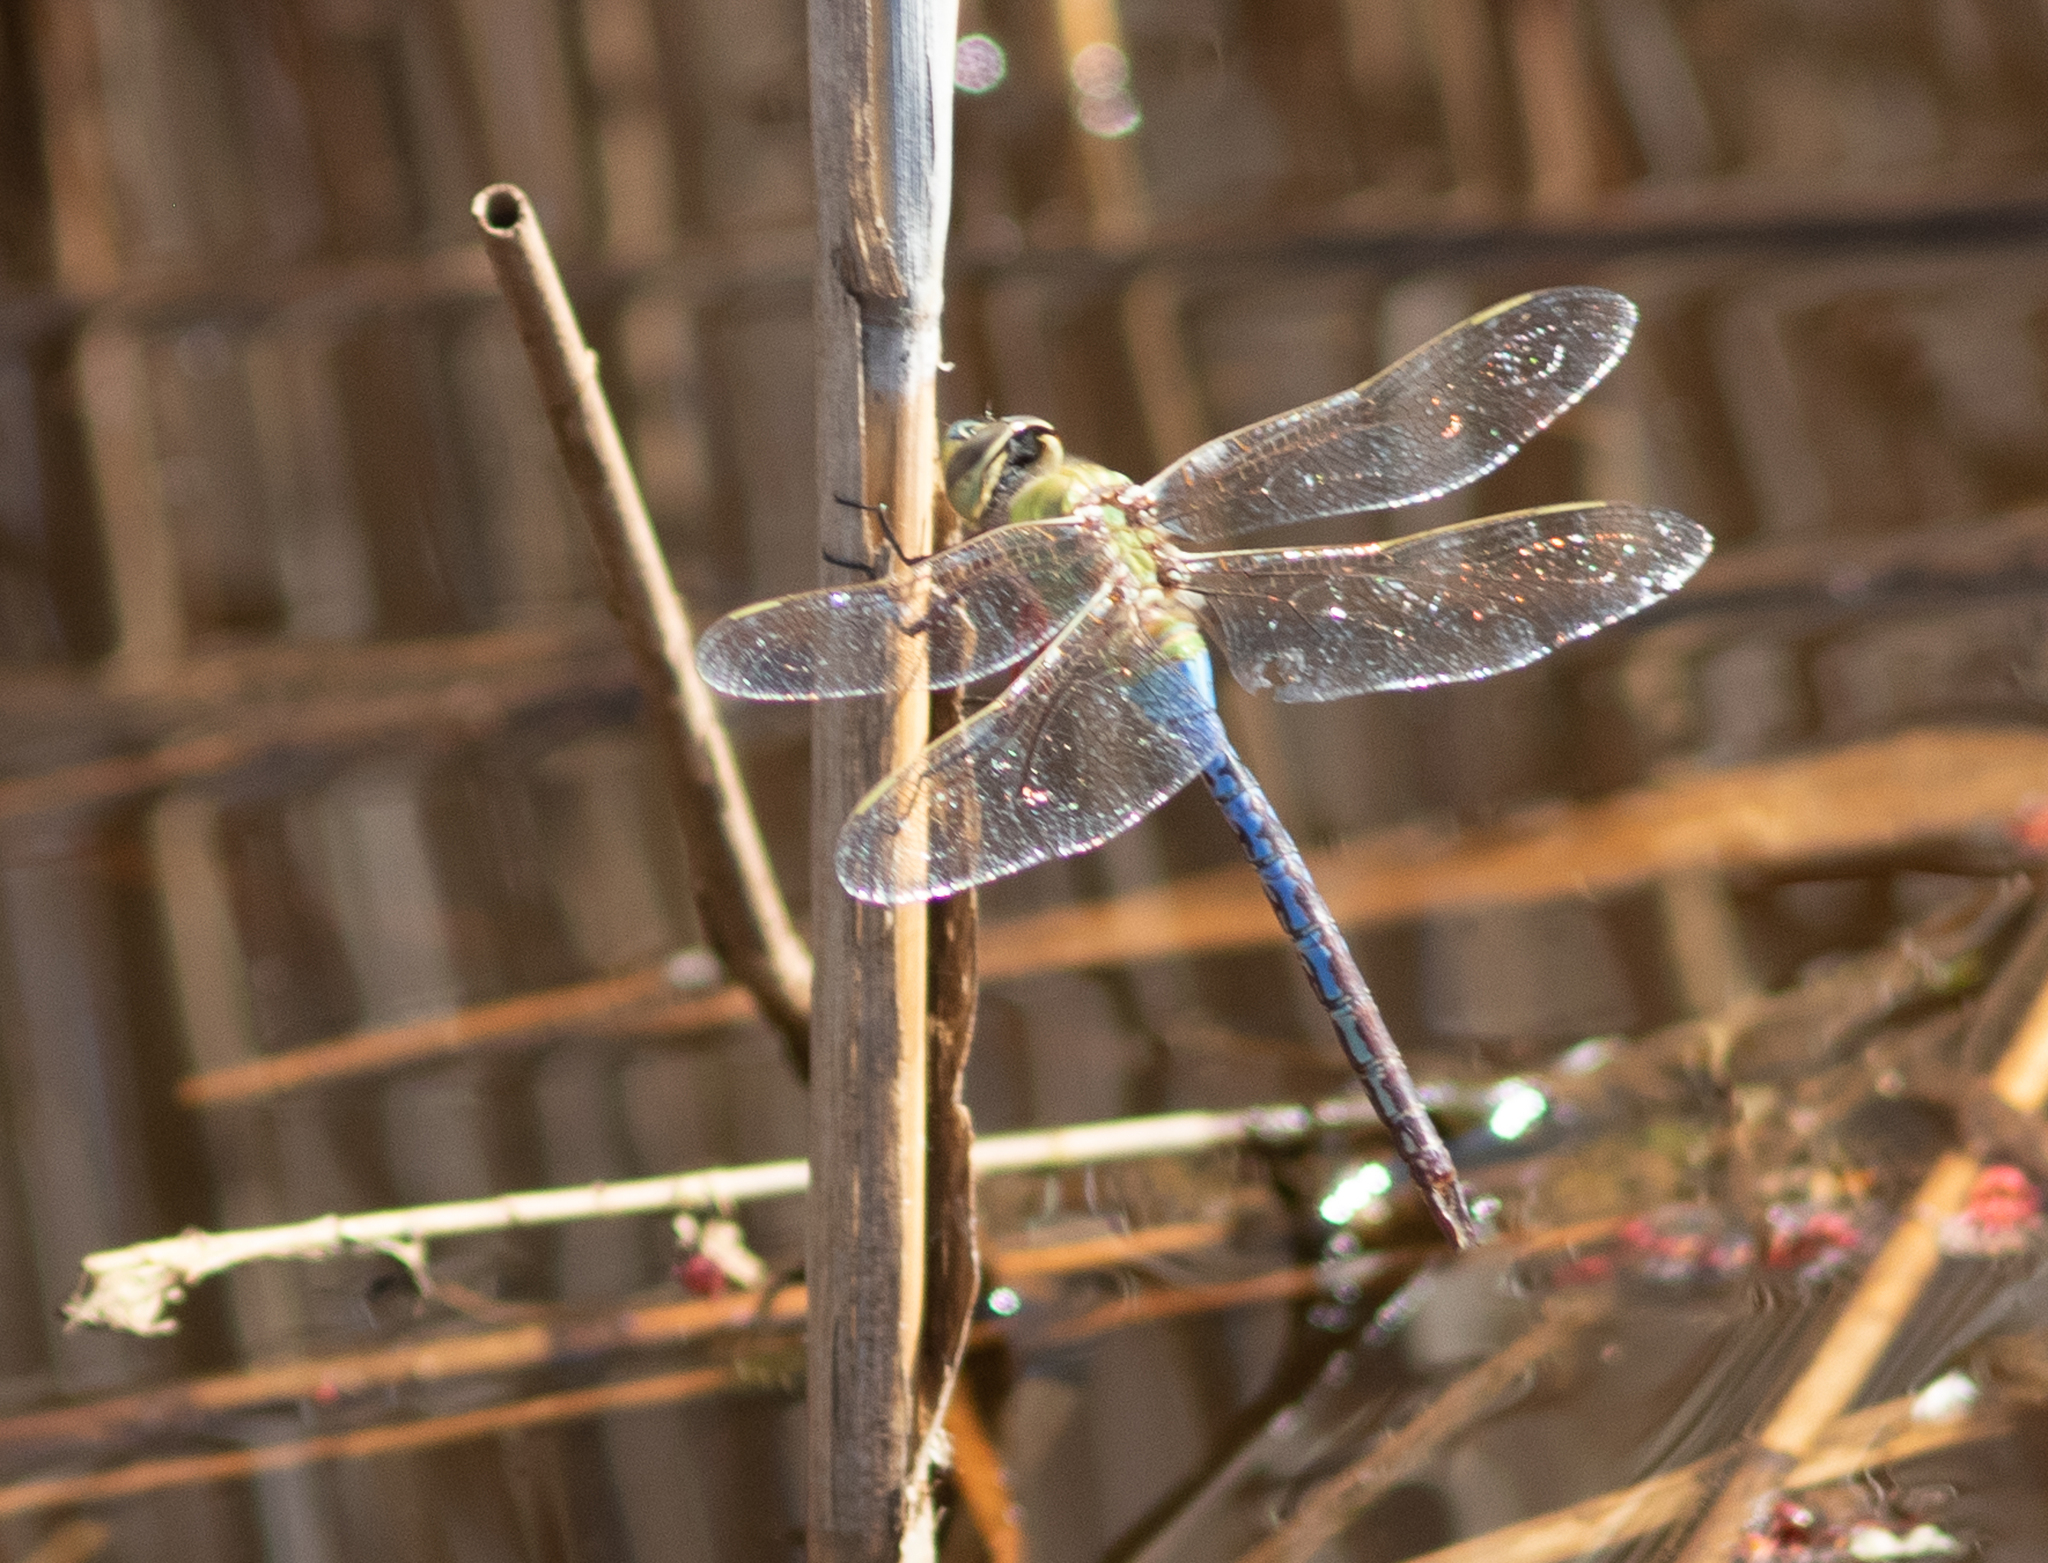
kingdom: Animalia
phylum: Arthropoda
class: Insecta
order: Odonata
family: Aeshnidae
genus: Anax
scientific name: Anax junius
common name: Common green darner
